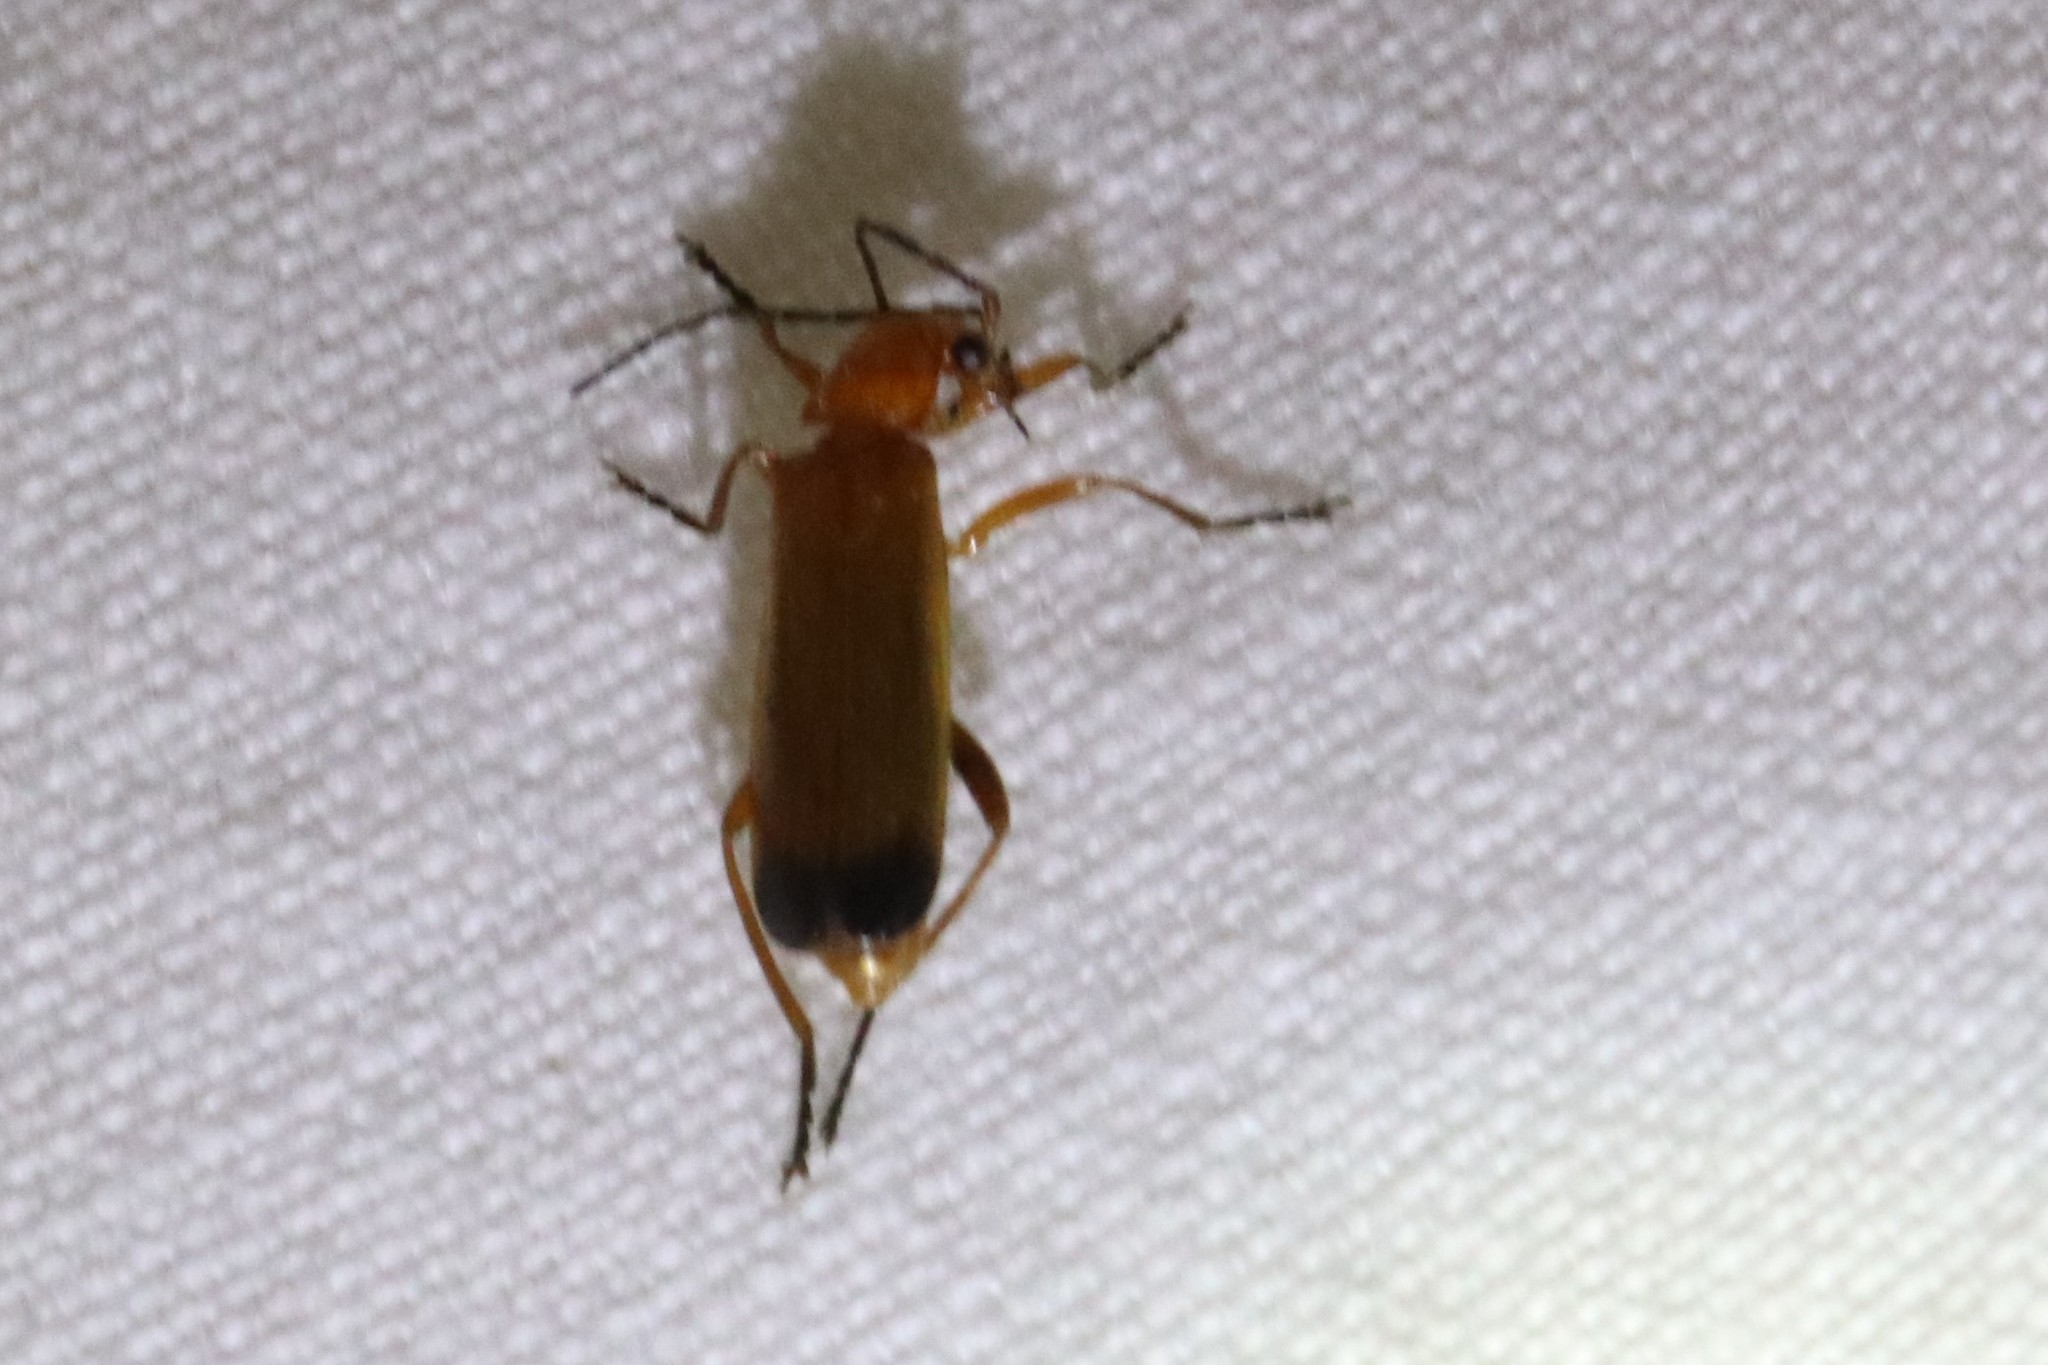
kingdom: Animalia
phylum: Arthropoda
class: Insecta
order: Coleoptera
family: Cantharidae
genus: Rhagonycha
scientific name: Rhagonycha fulva
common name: Common red soldier beetle
